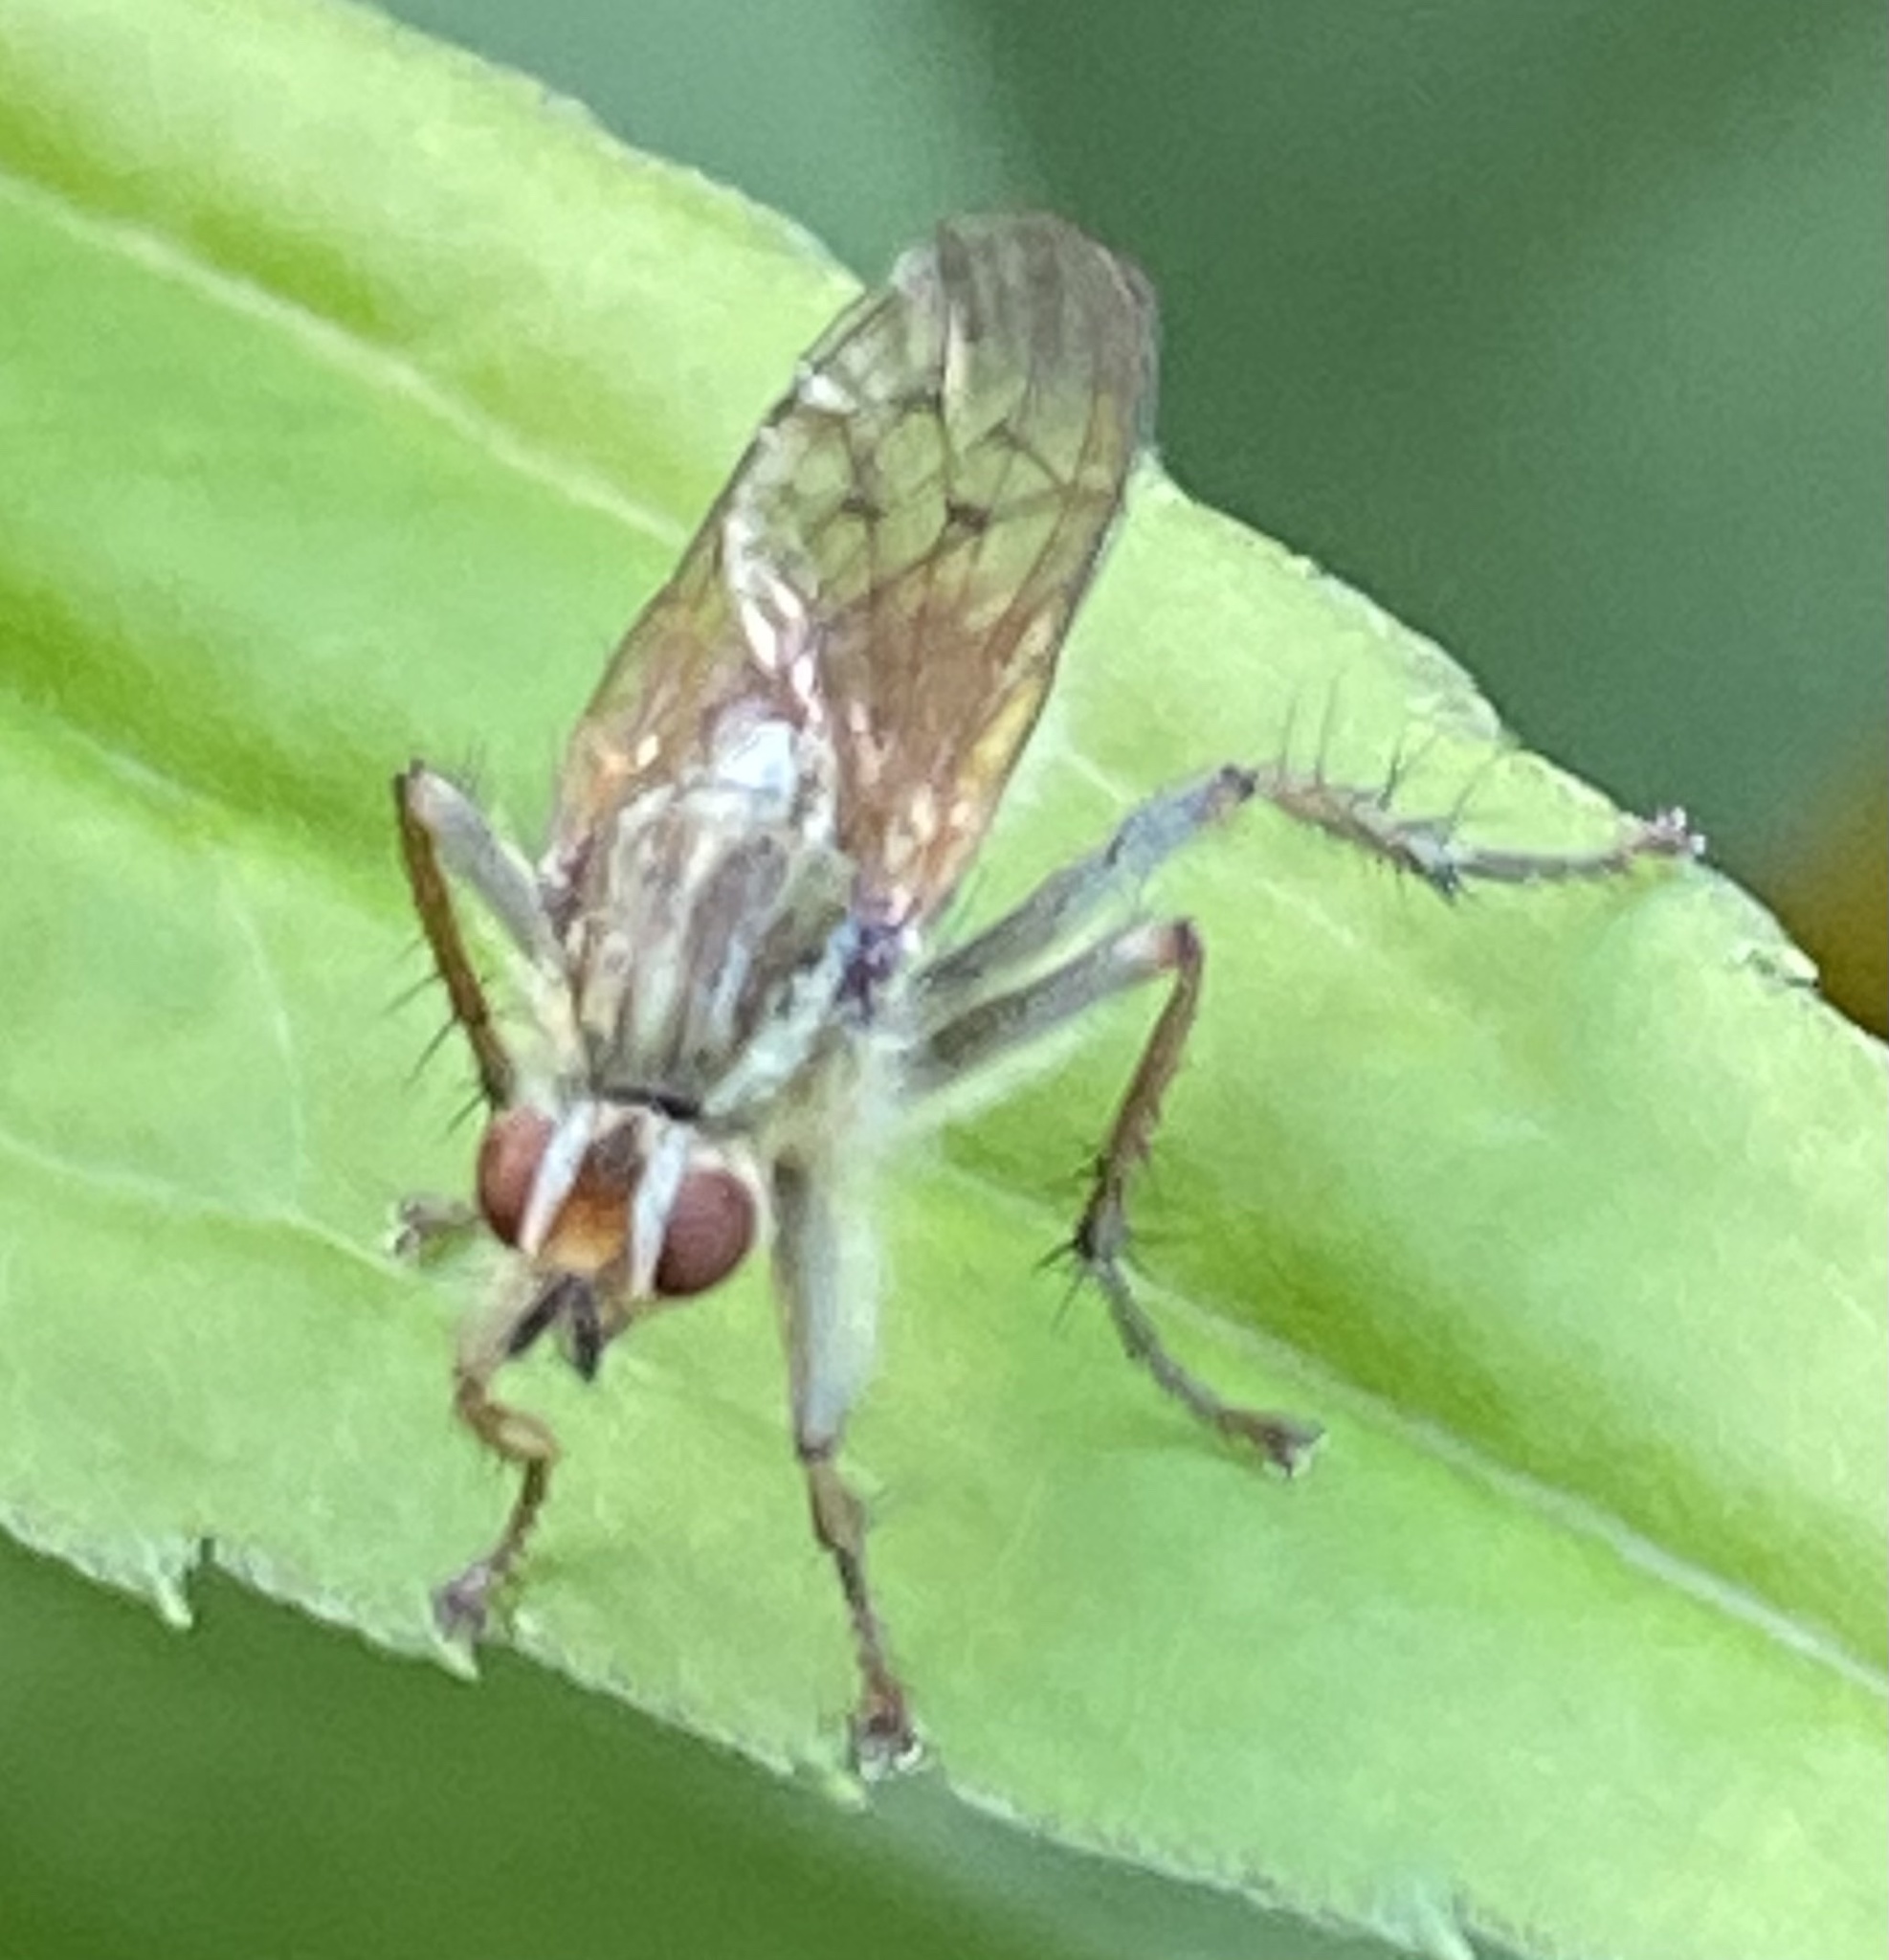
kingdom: Animalia
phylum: Arthropoda
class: Insecta
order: Diptera
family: Scathophagidae
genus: Scathophaga
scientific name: Scathophaga stercoraria
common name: Yellow dung fly
